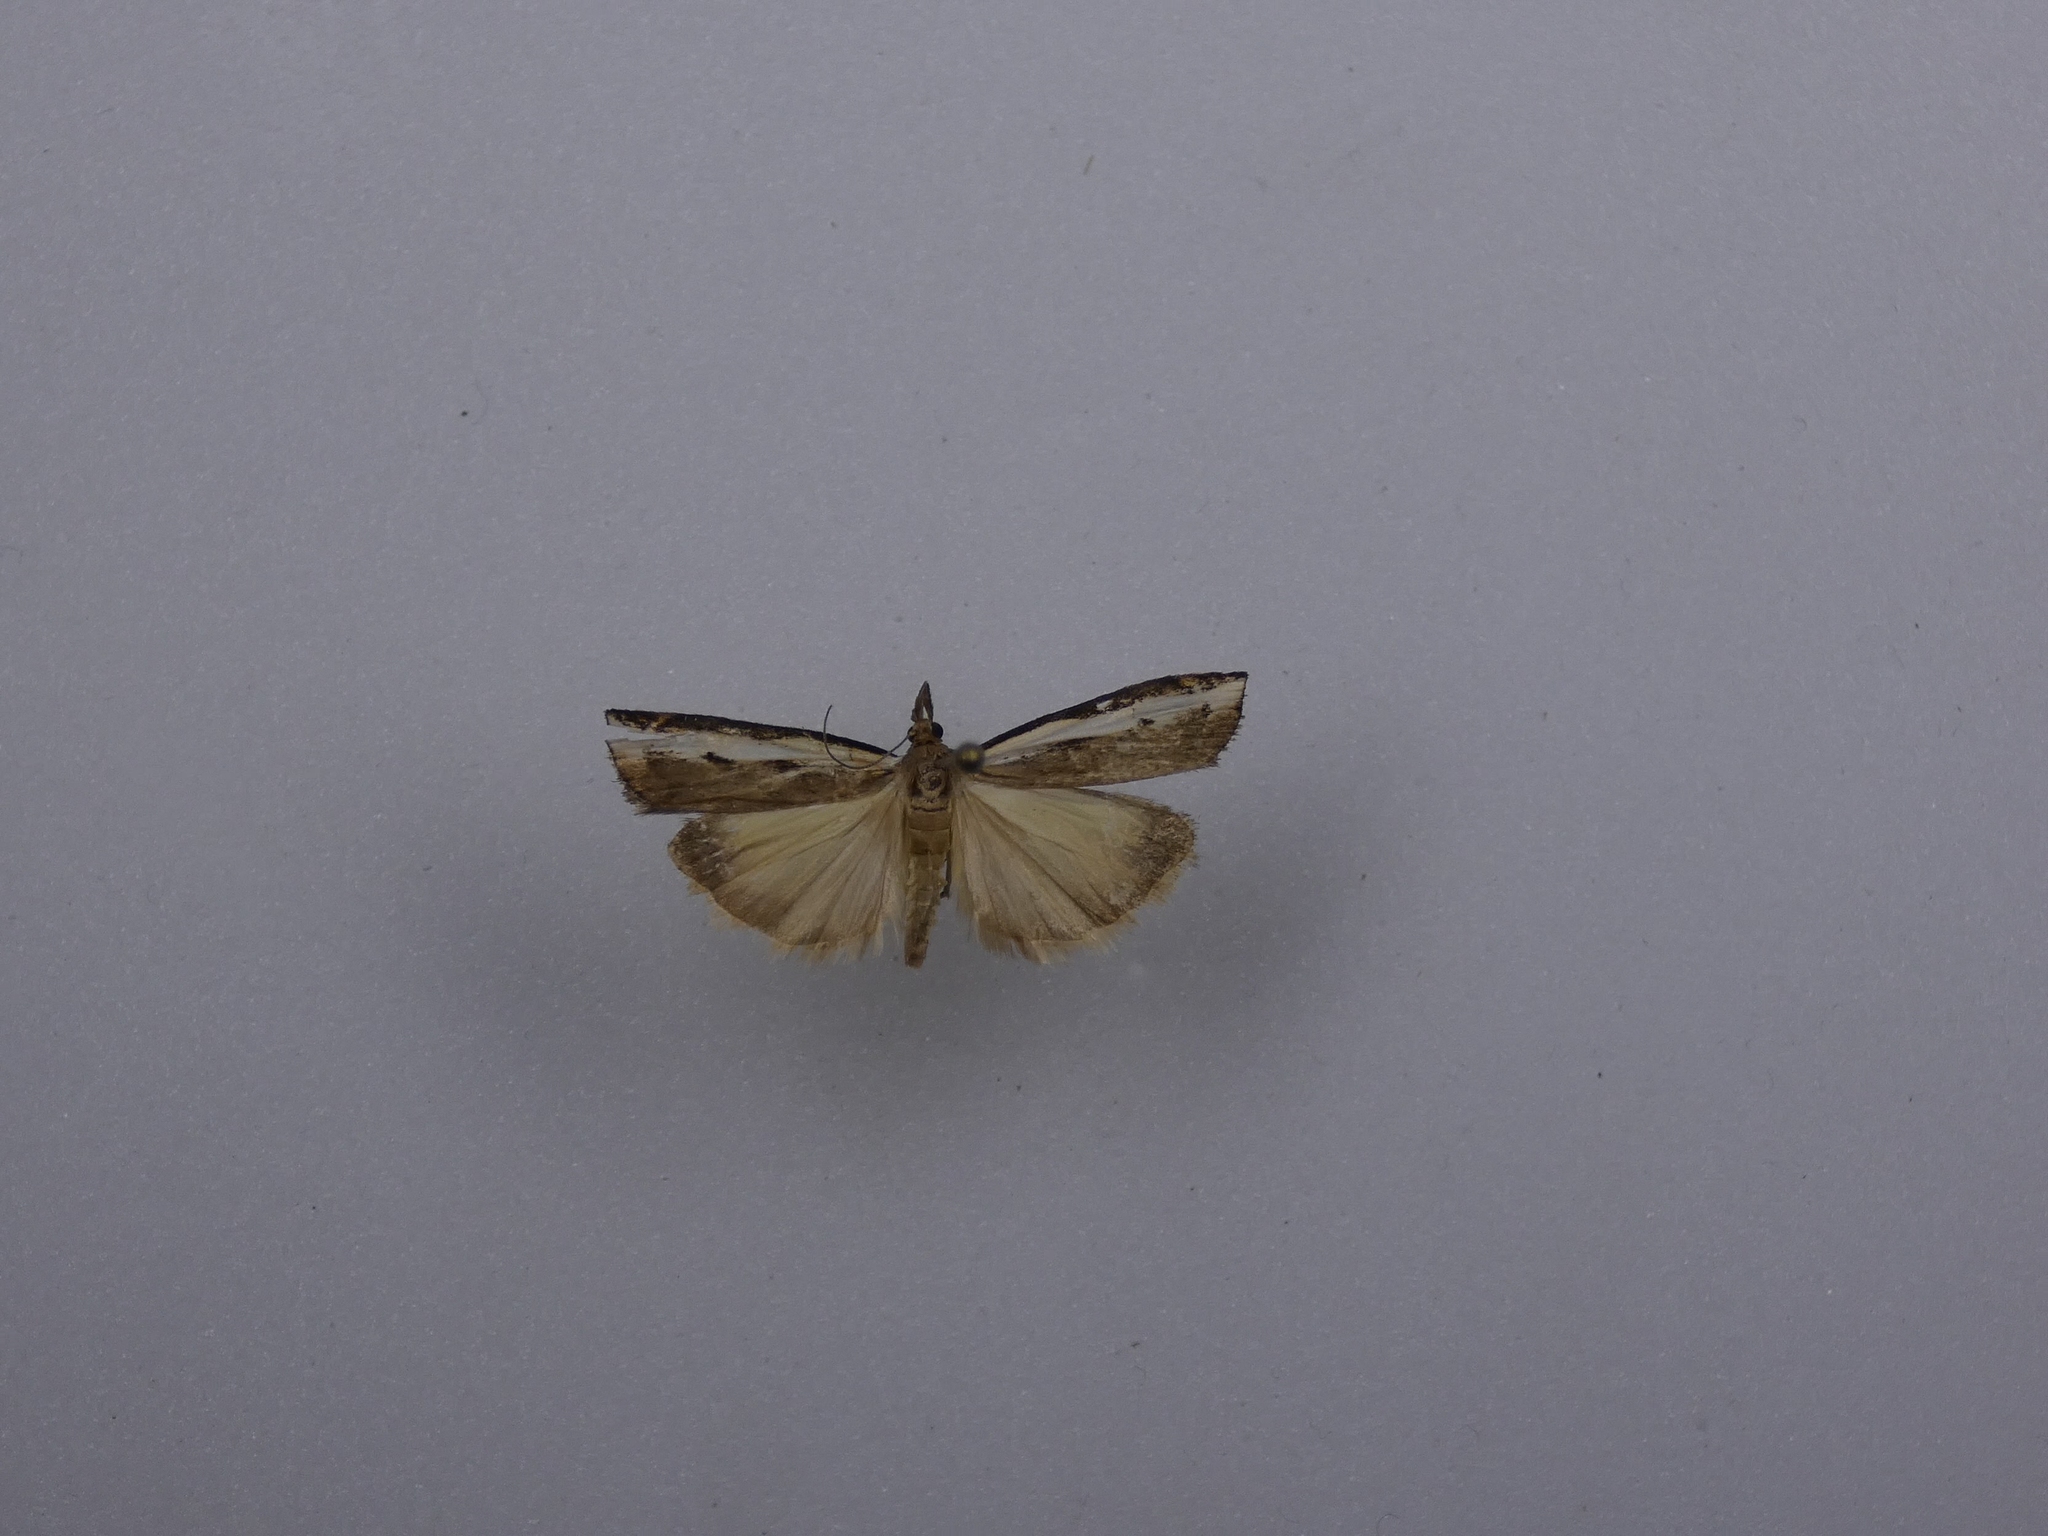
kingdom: Animalia
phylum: Arthropoda
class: Insecta
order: Lepidoptera
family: Crambidae
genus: Orocrambus
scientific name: Orocrambus flexuosellus
